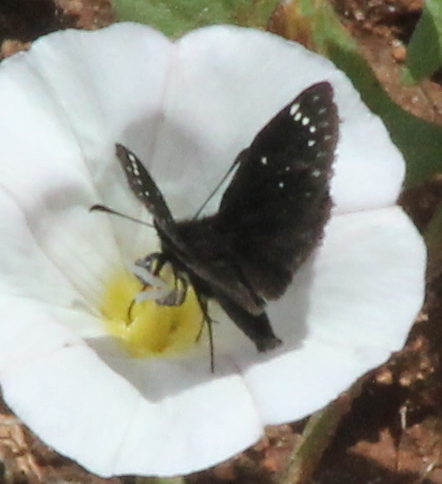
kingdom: Animalia
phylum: Arthropoda
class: Insecta
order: Lepidoptera
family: Hesperiidae
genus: Pholisora
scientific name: Pholisora catullus
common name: Common sootywing
